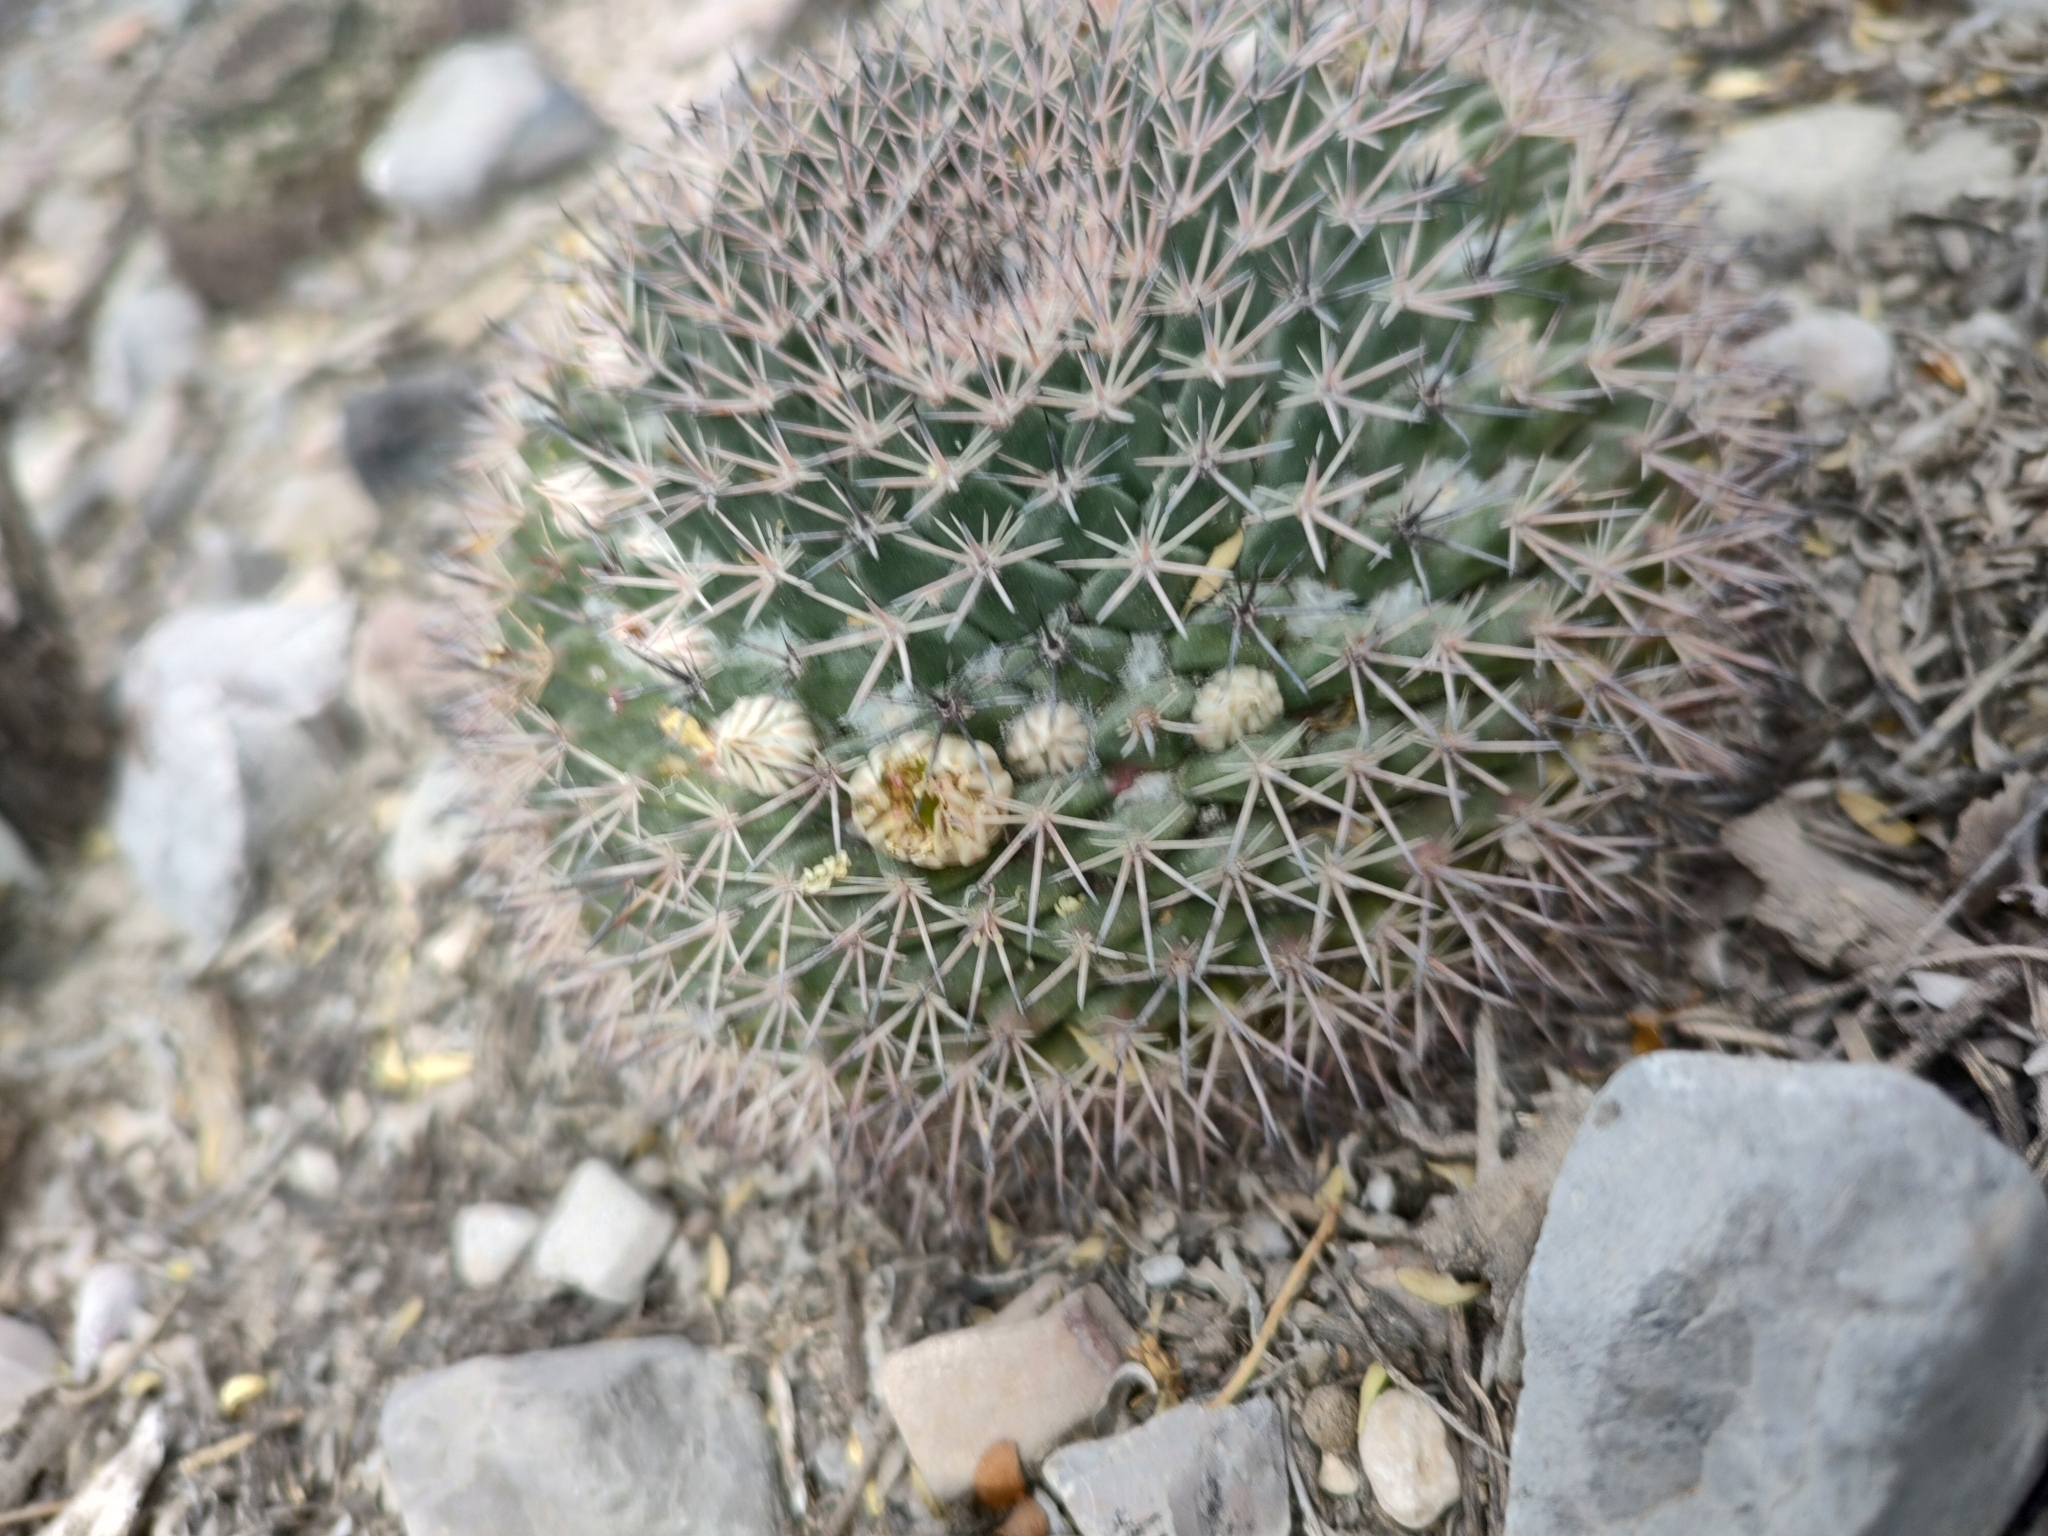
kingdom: Plantae
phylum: Tracheophyta
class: Magnoliopsida
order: Caryophyllales
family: Cactaceae
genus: Mammillaria
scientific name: Mammillaria heyderi
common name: Little nipple cactus
